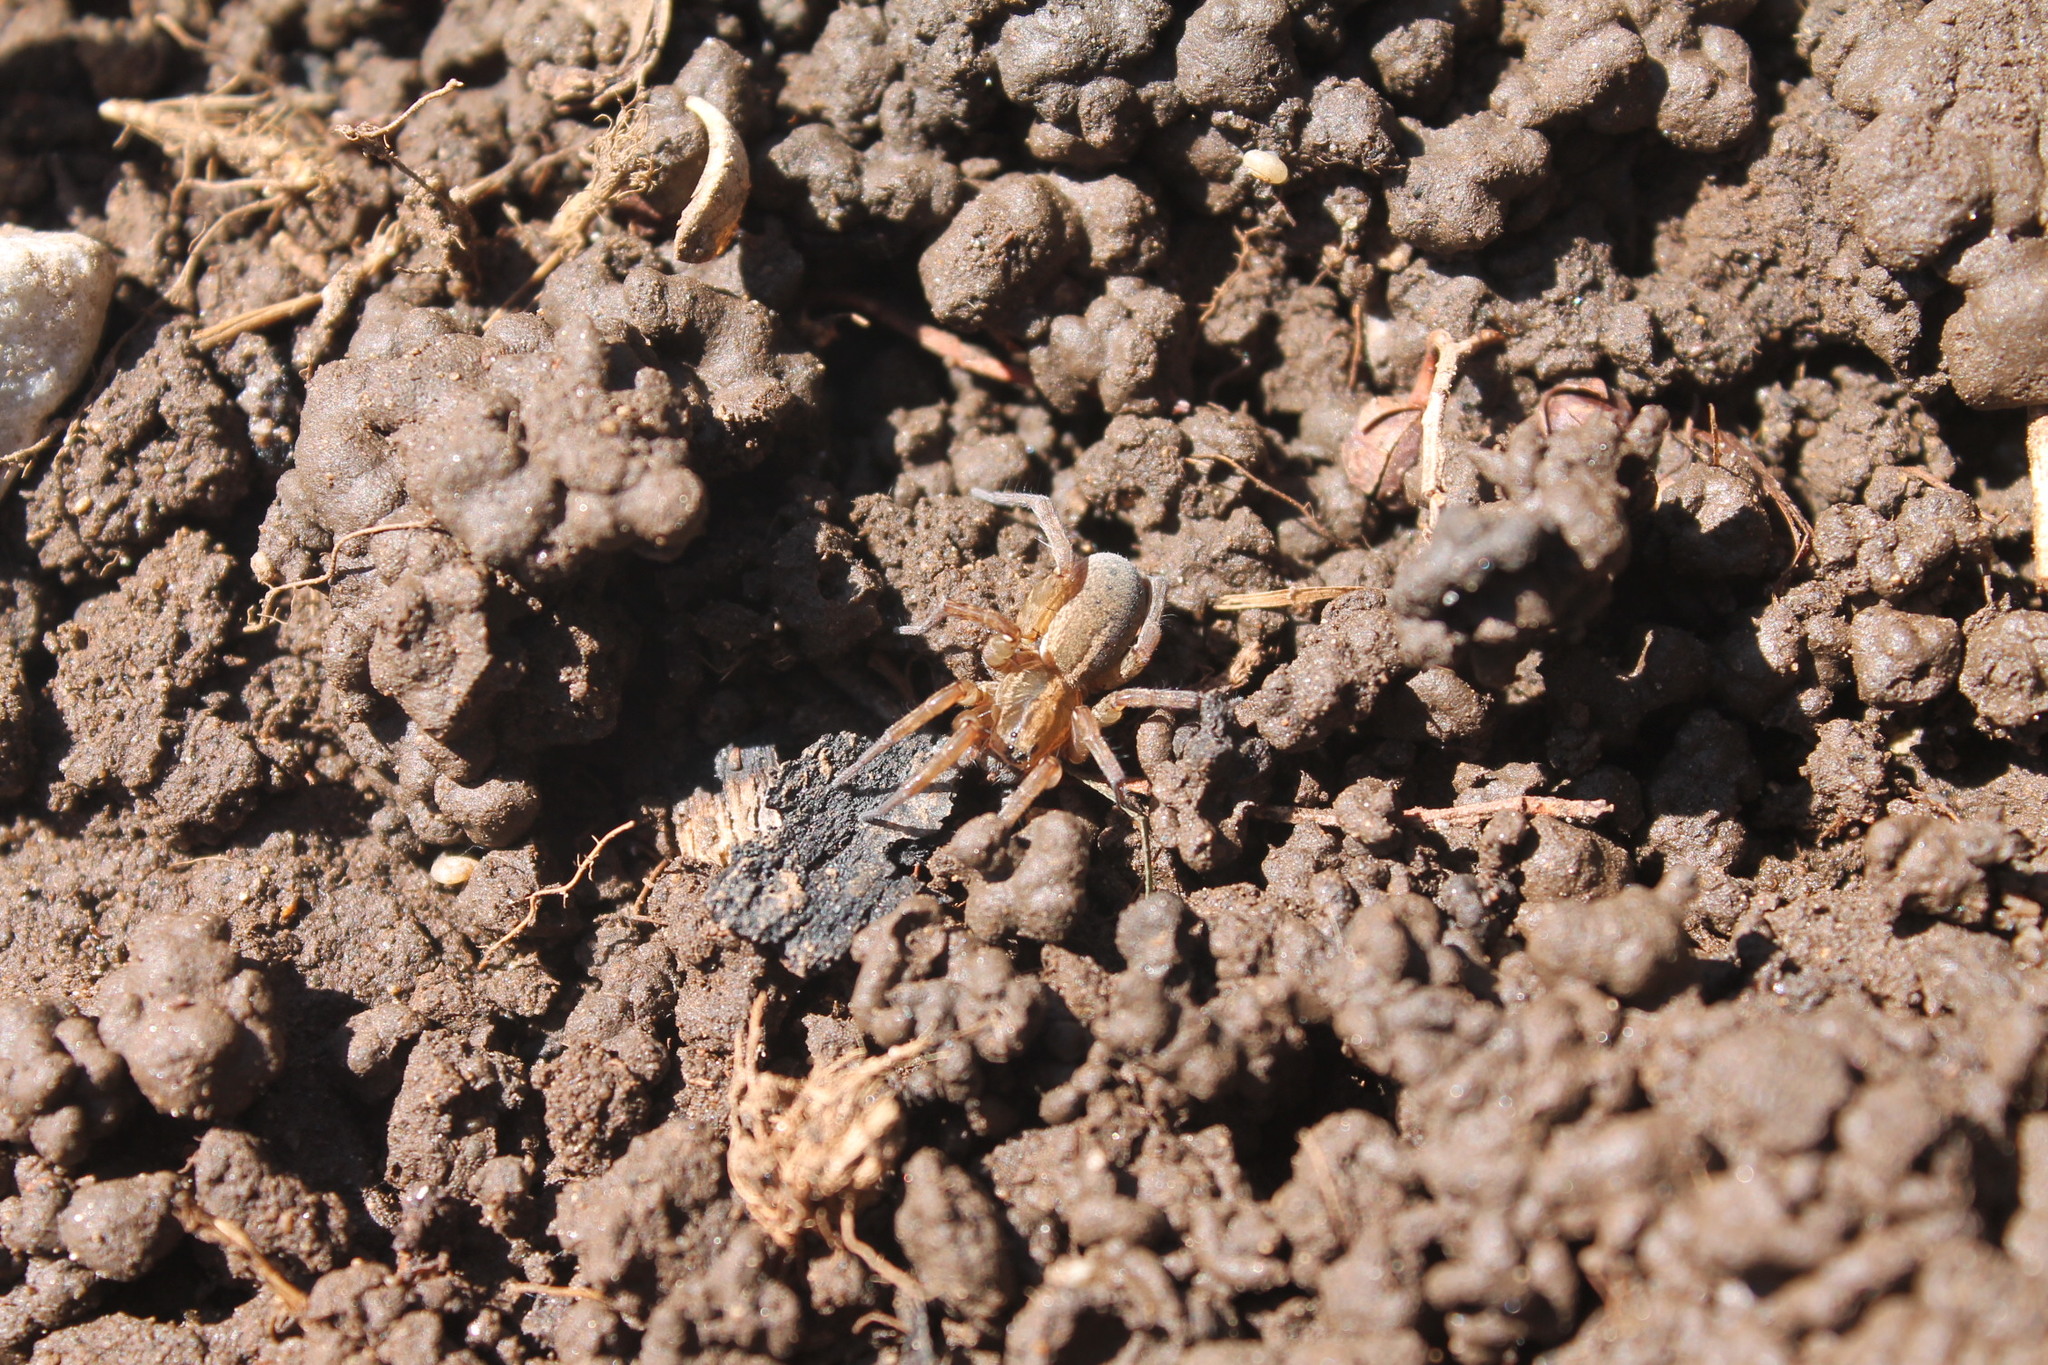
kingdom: Animalia
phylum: Arthropoda
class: Arachnida
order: Araneae
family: Lycosidae
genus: Trochosa
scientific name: Trochosa ruricola
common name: Spider
